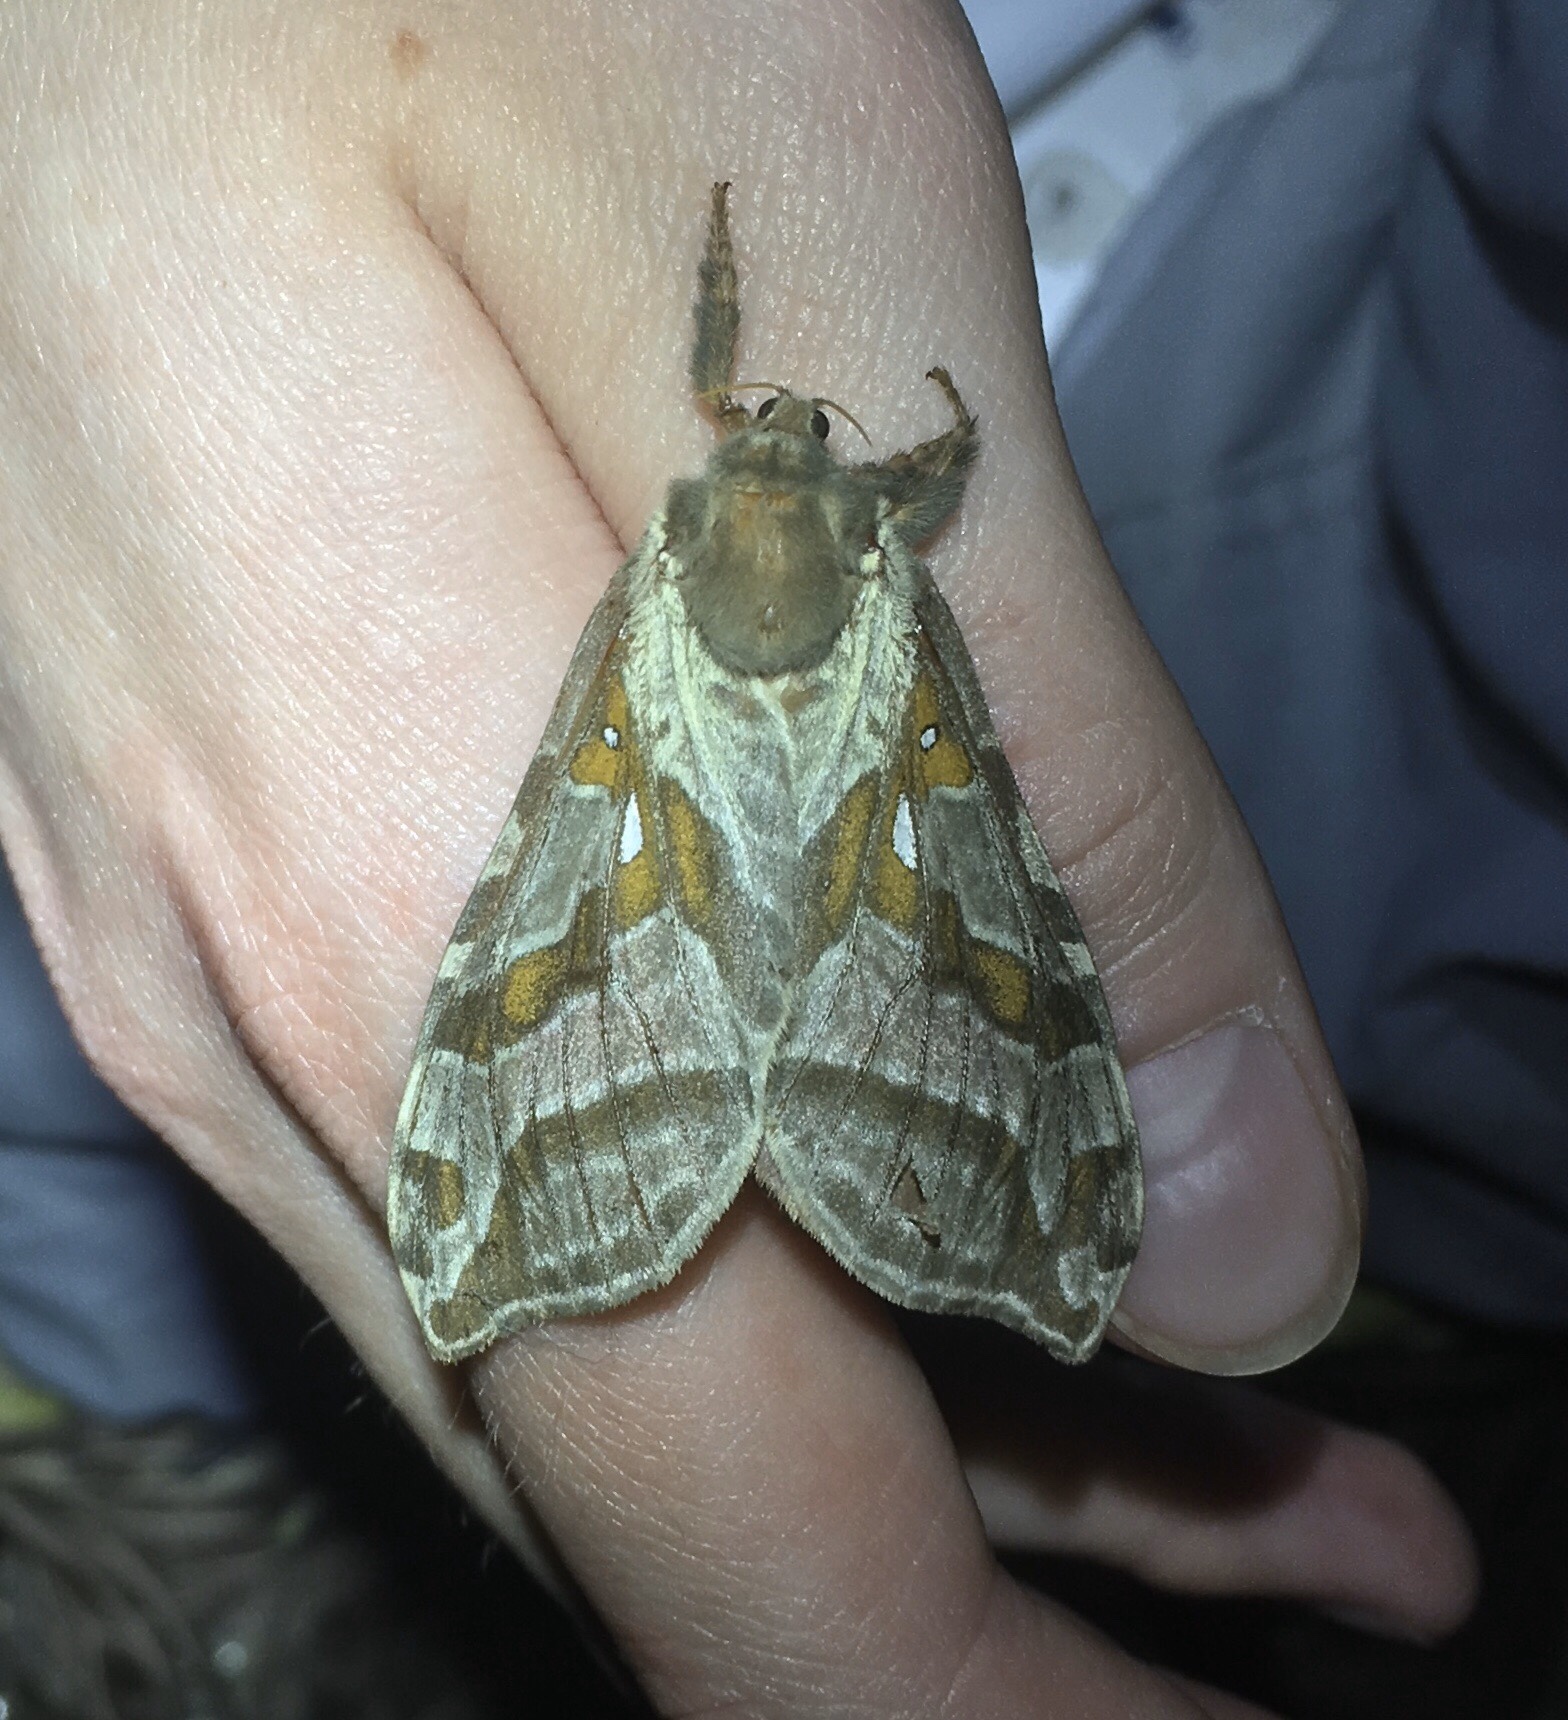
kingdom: Animalia
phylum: Arthropoda
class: Insecta
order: Lepidoptera
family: Hepialidae
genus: Sthenopis
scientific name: Sthenopis argenteomaculatus
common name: Silver-spotted ghost moth
